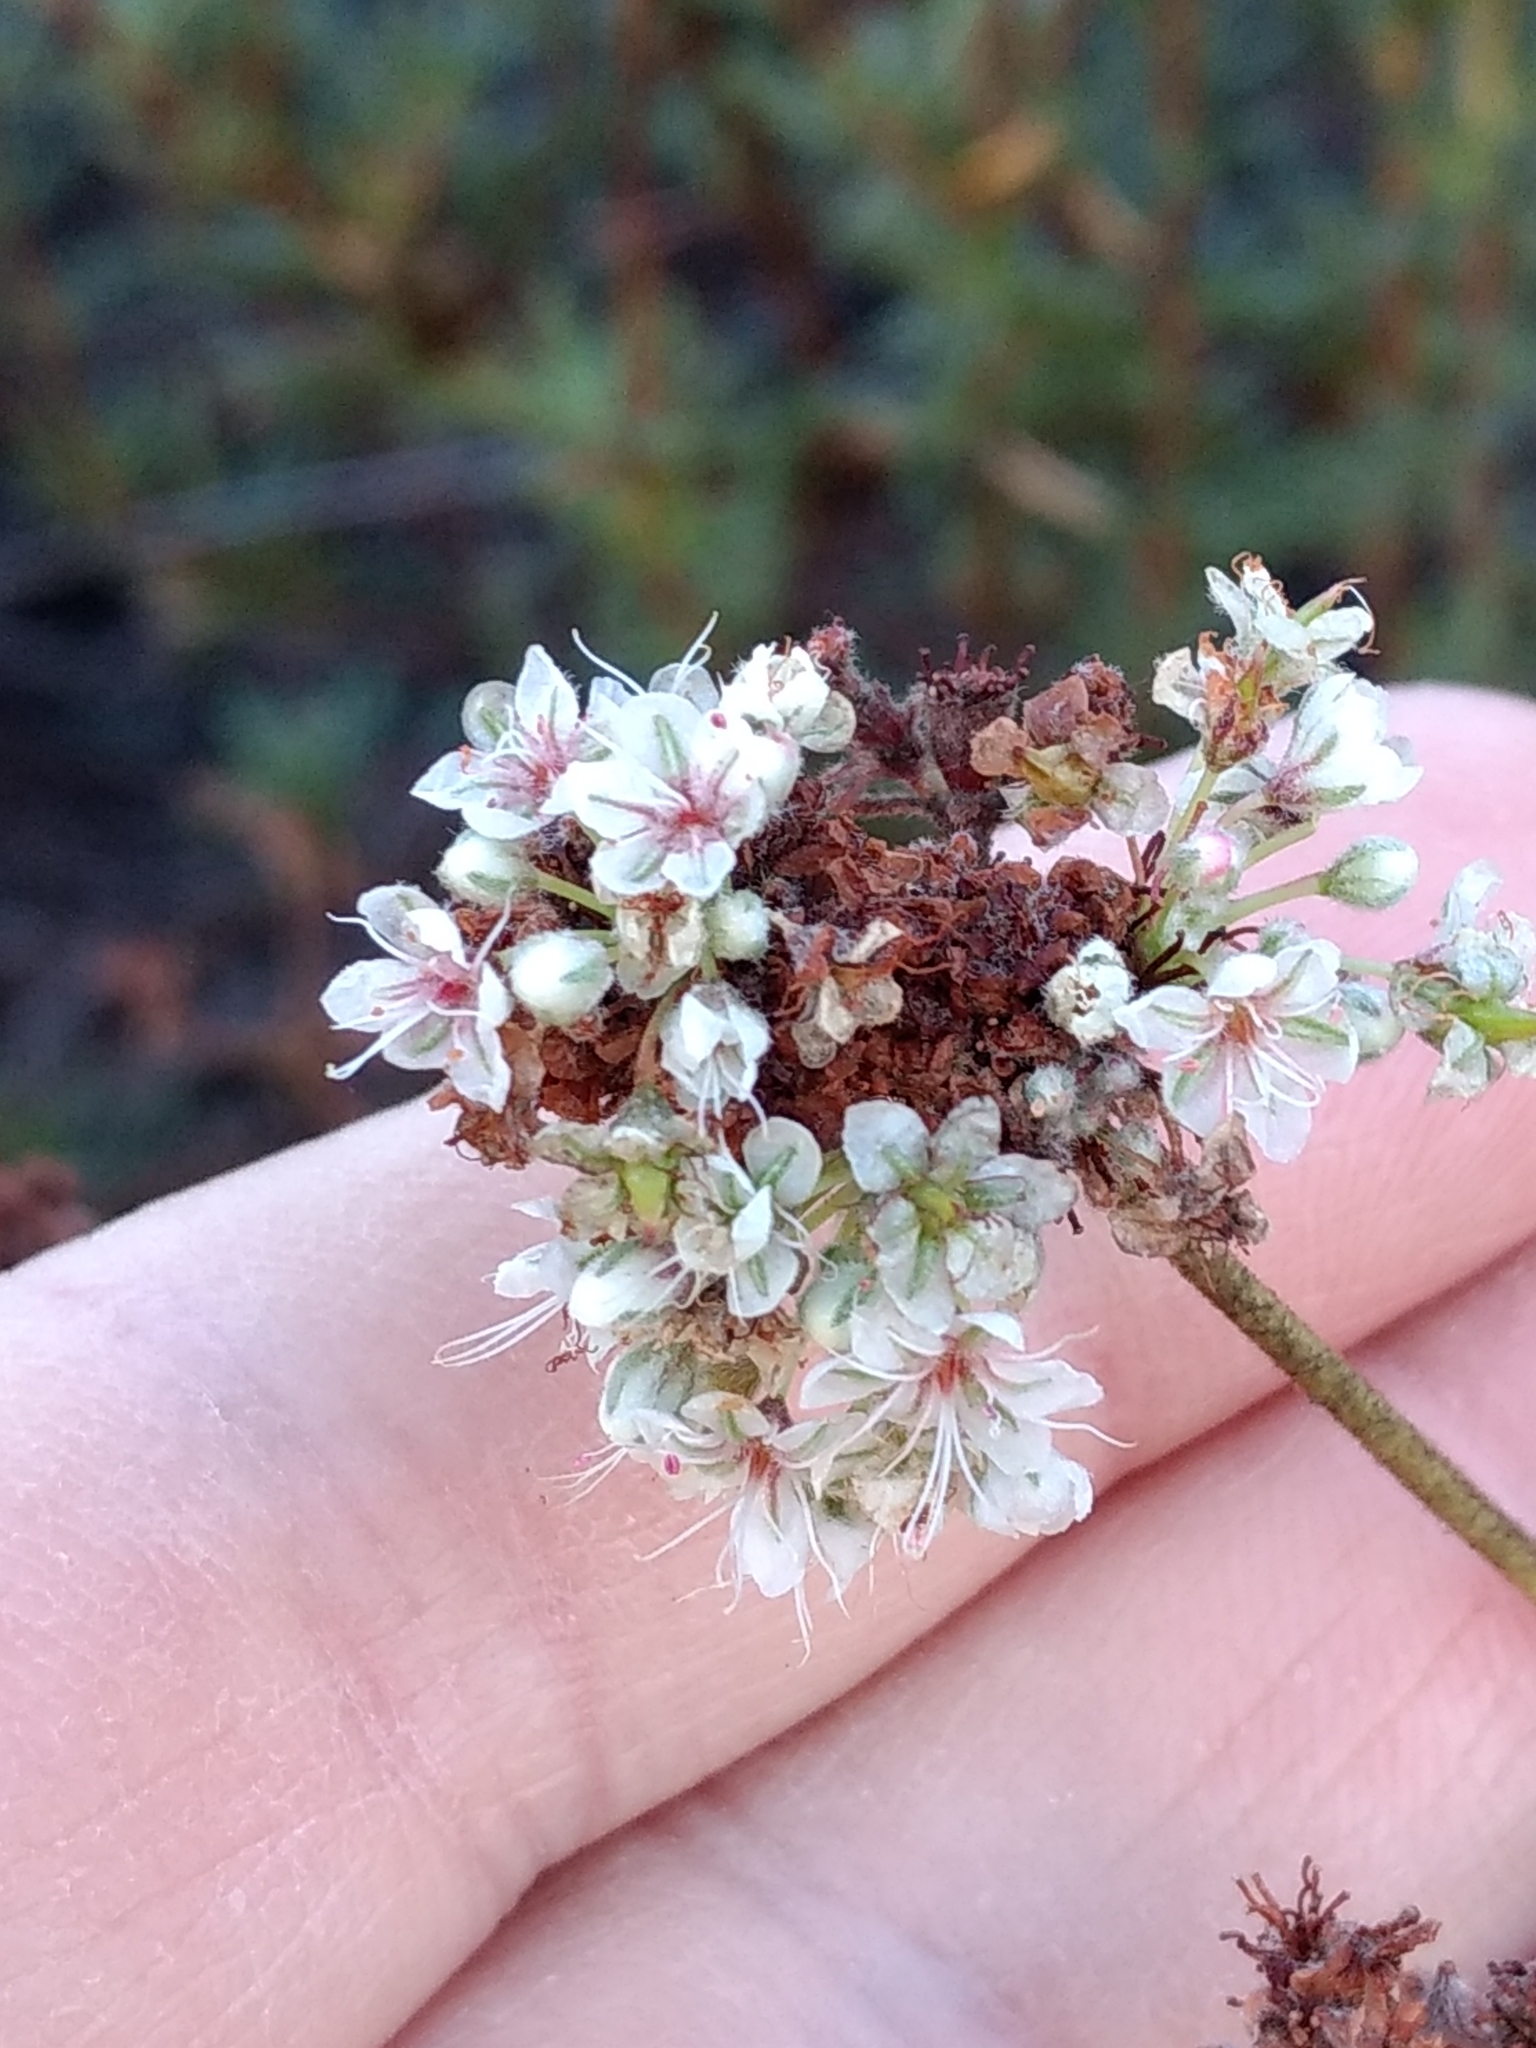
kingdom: Plantae
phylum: Tracheophyta
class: Magnoliopsida
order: Caryophyllales
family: Polygonaceae
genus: Eriogonum
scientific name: Eriogonum fasciculatum
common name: California wild buckwheat
